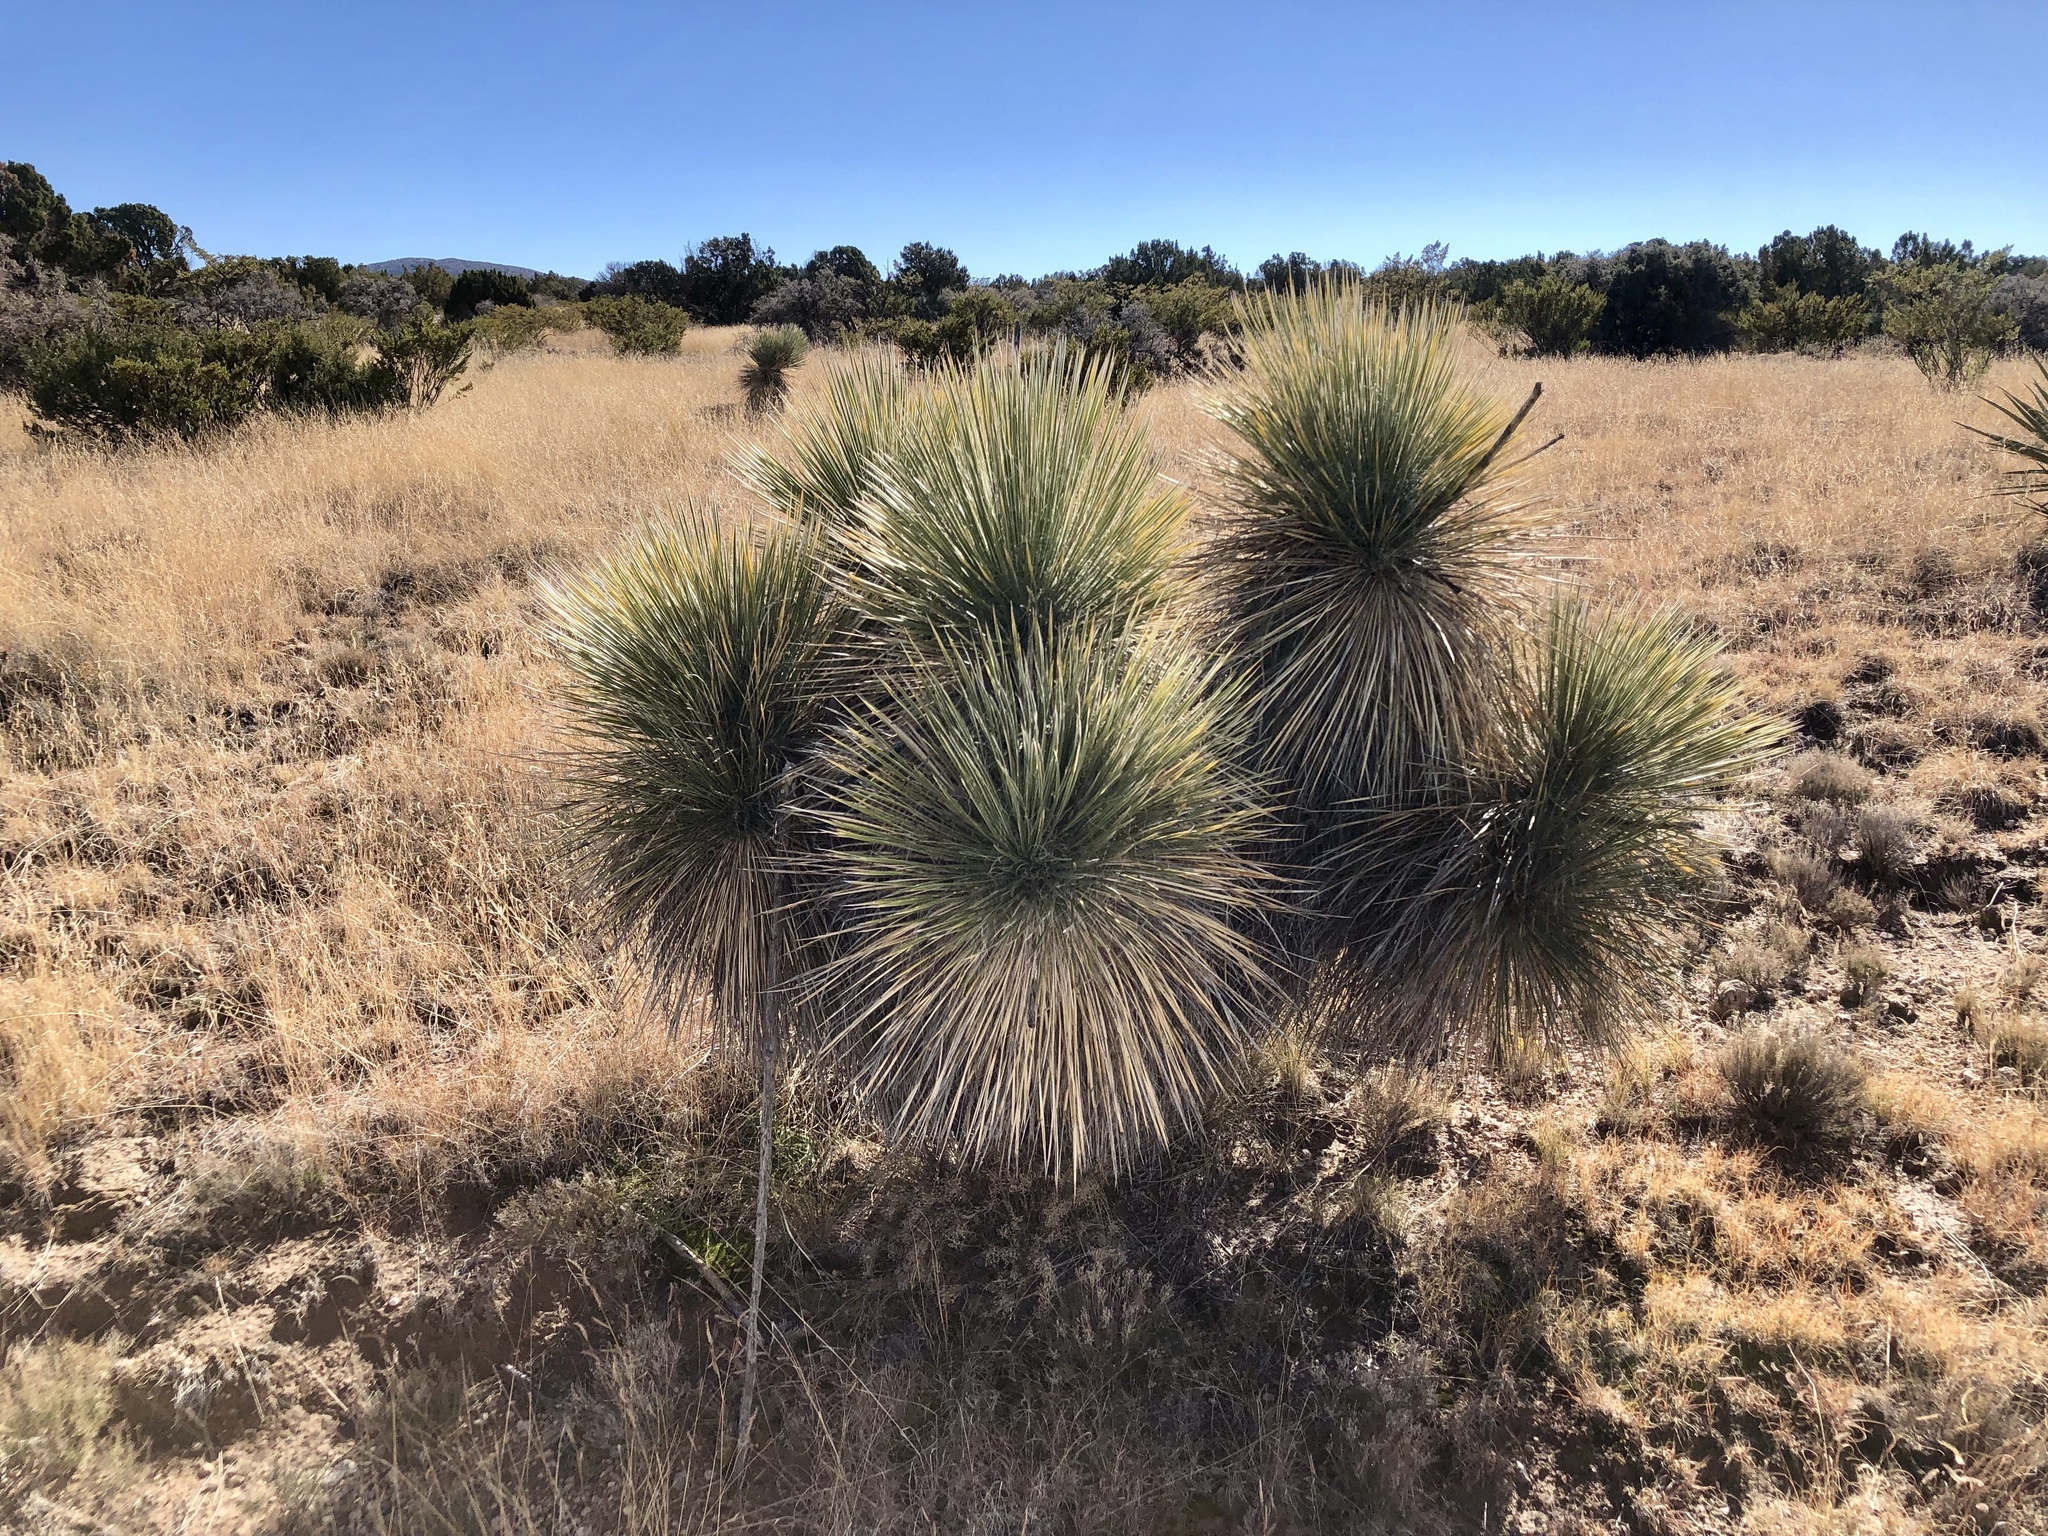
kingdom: Plantae
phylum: Tracheophyta
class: Liliopsida
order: Asparagales
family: Asparagaceae
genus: Yucca
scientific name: Yucca elata
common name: Palmella
